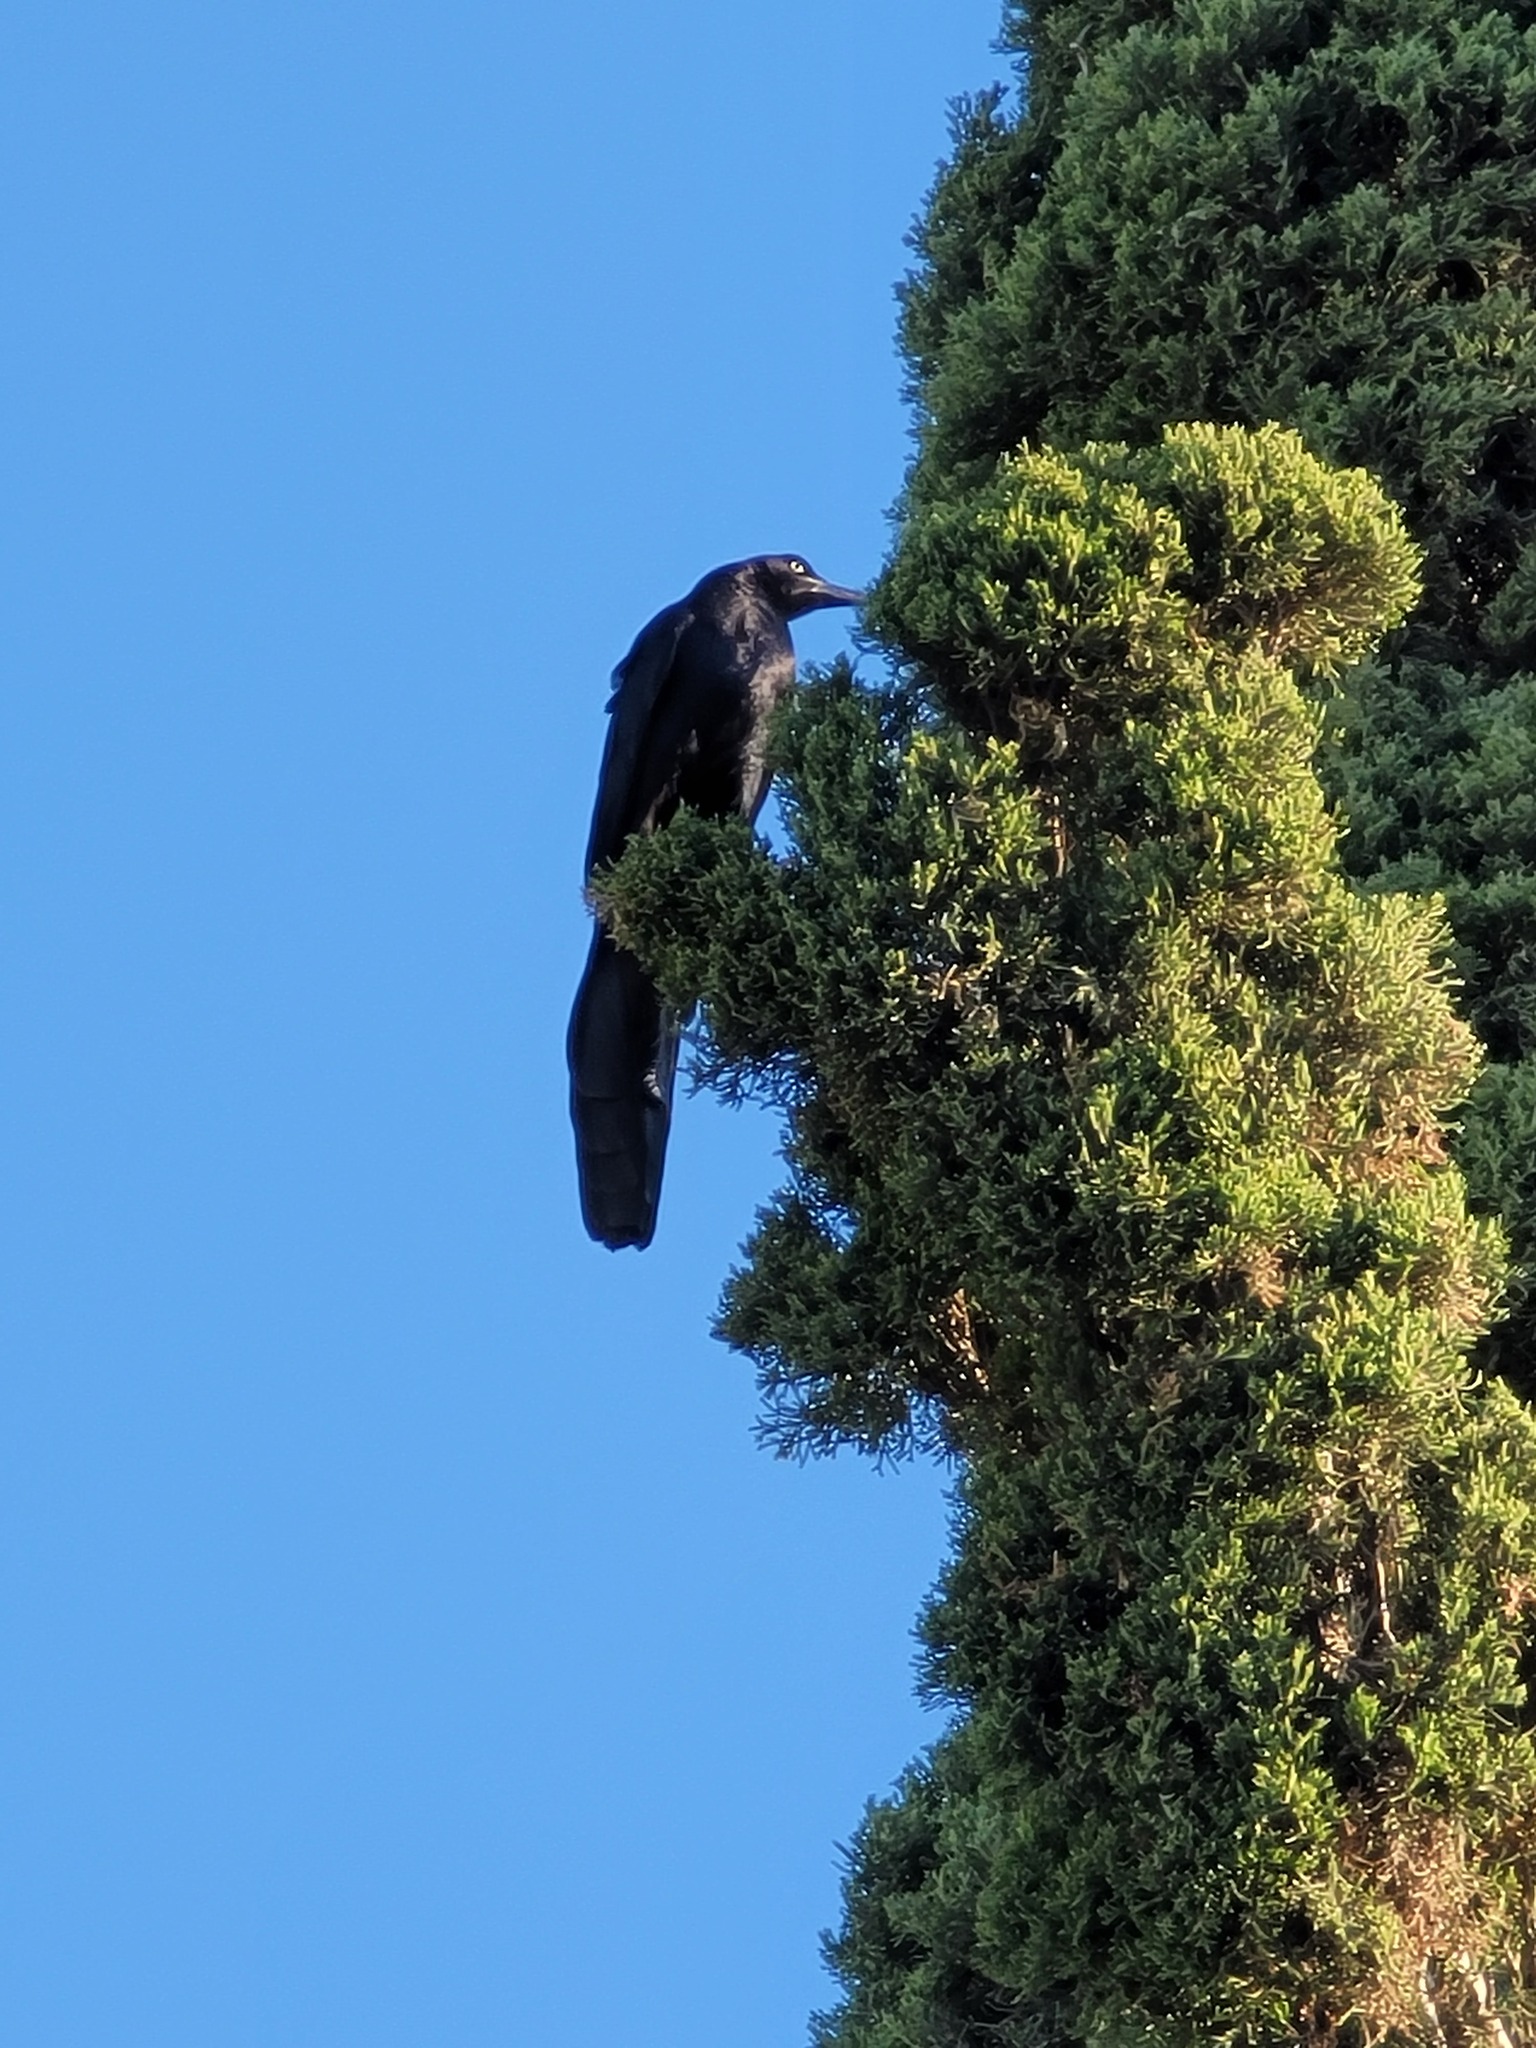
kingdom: Animalia
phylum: Chordata
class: Aves
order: Passeriformes
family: Icteridae
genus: Quiscalus
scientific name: Quiscalus mexicanus
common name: Great-tailed grackle
